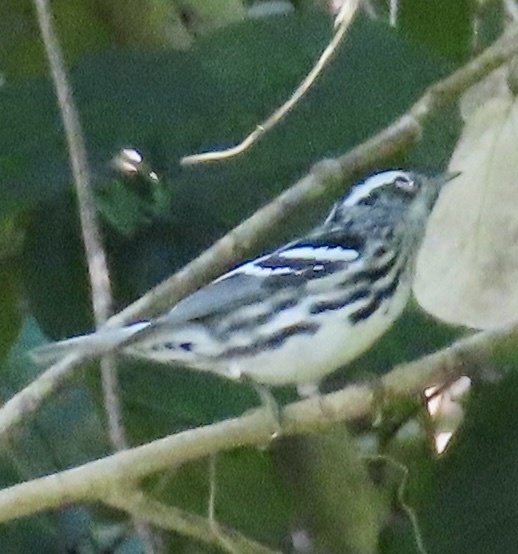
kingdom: Animalia
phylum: Chordata
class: Aves
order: Passeriformes
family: Parulidae
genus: Mniotilta
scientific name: Mniotilta varia
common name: Black-and-white warbler
